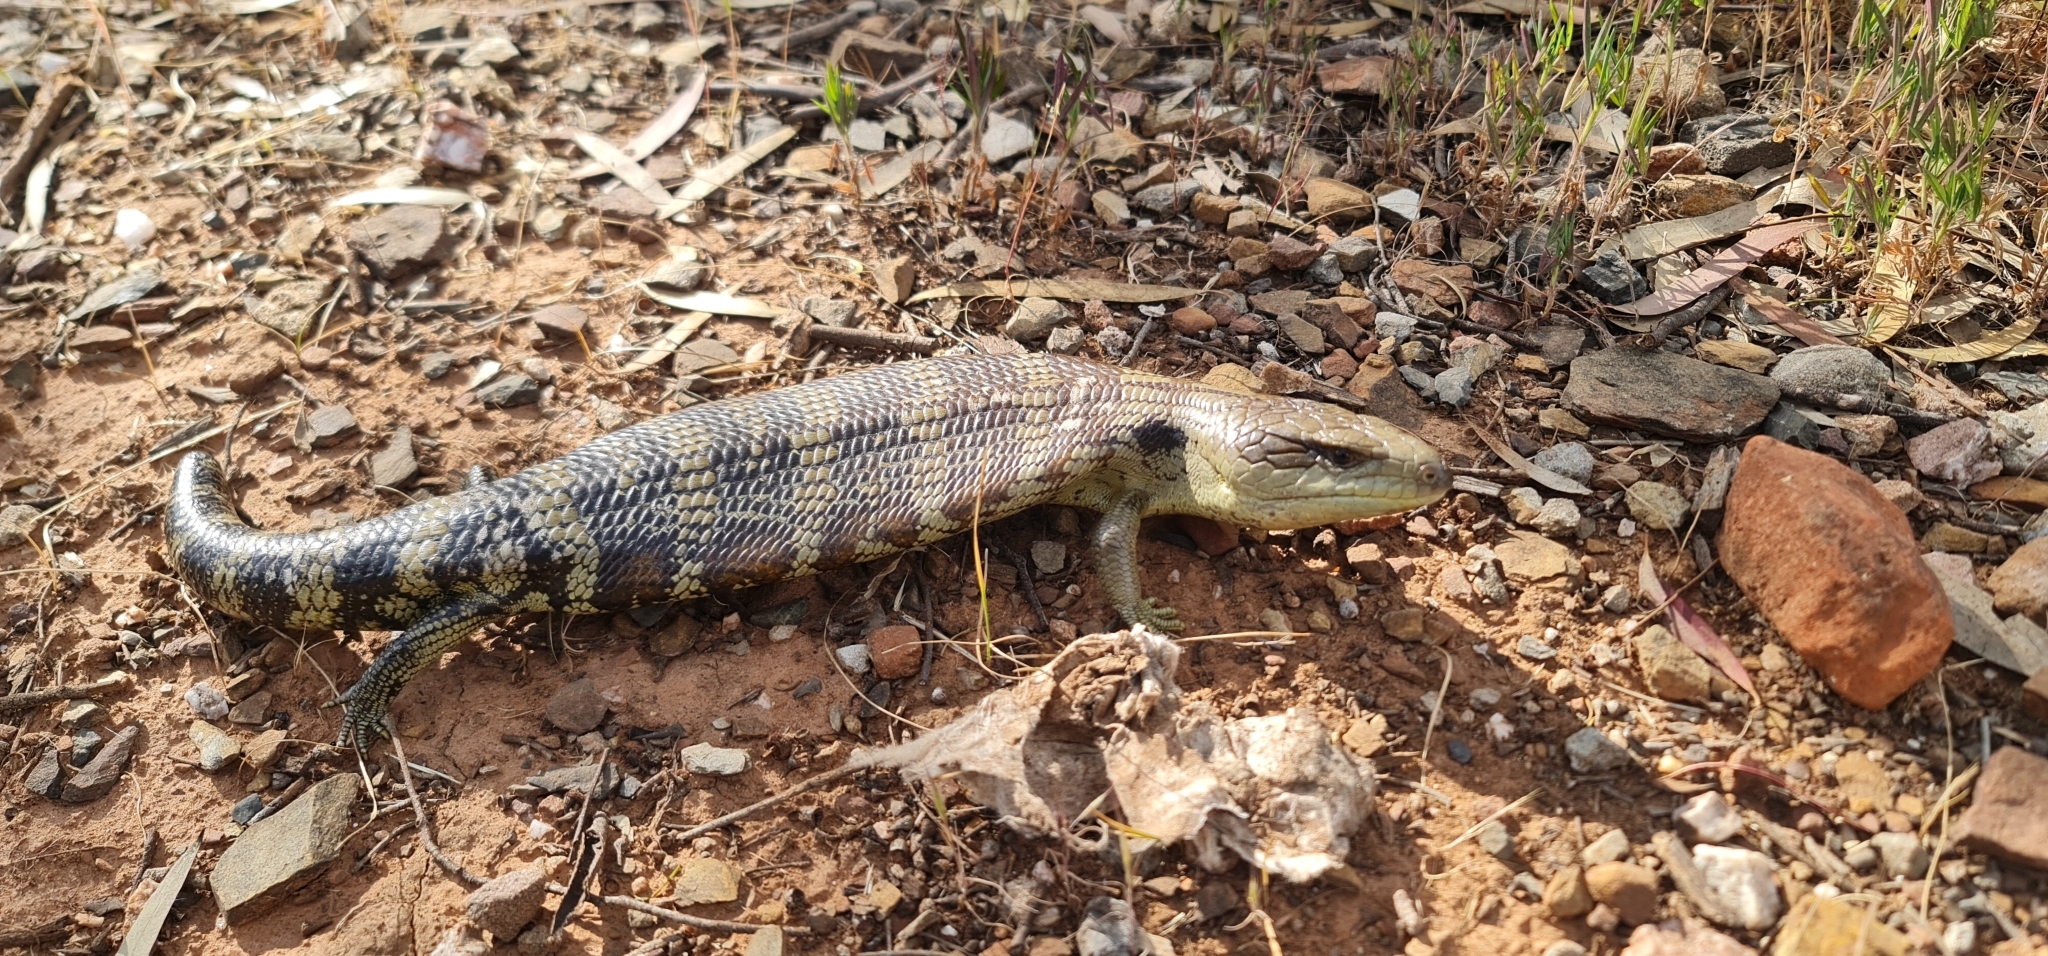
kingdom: Animalia
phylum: Chordata
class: Squamata
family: Scincidae
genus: Tiliqua
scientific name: Tiliqua scincoides
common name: Common bluetongue
